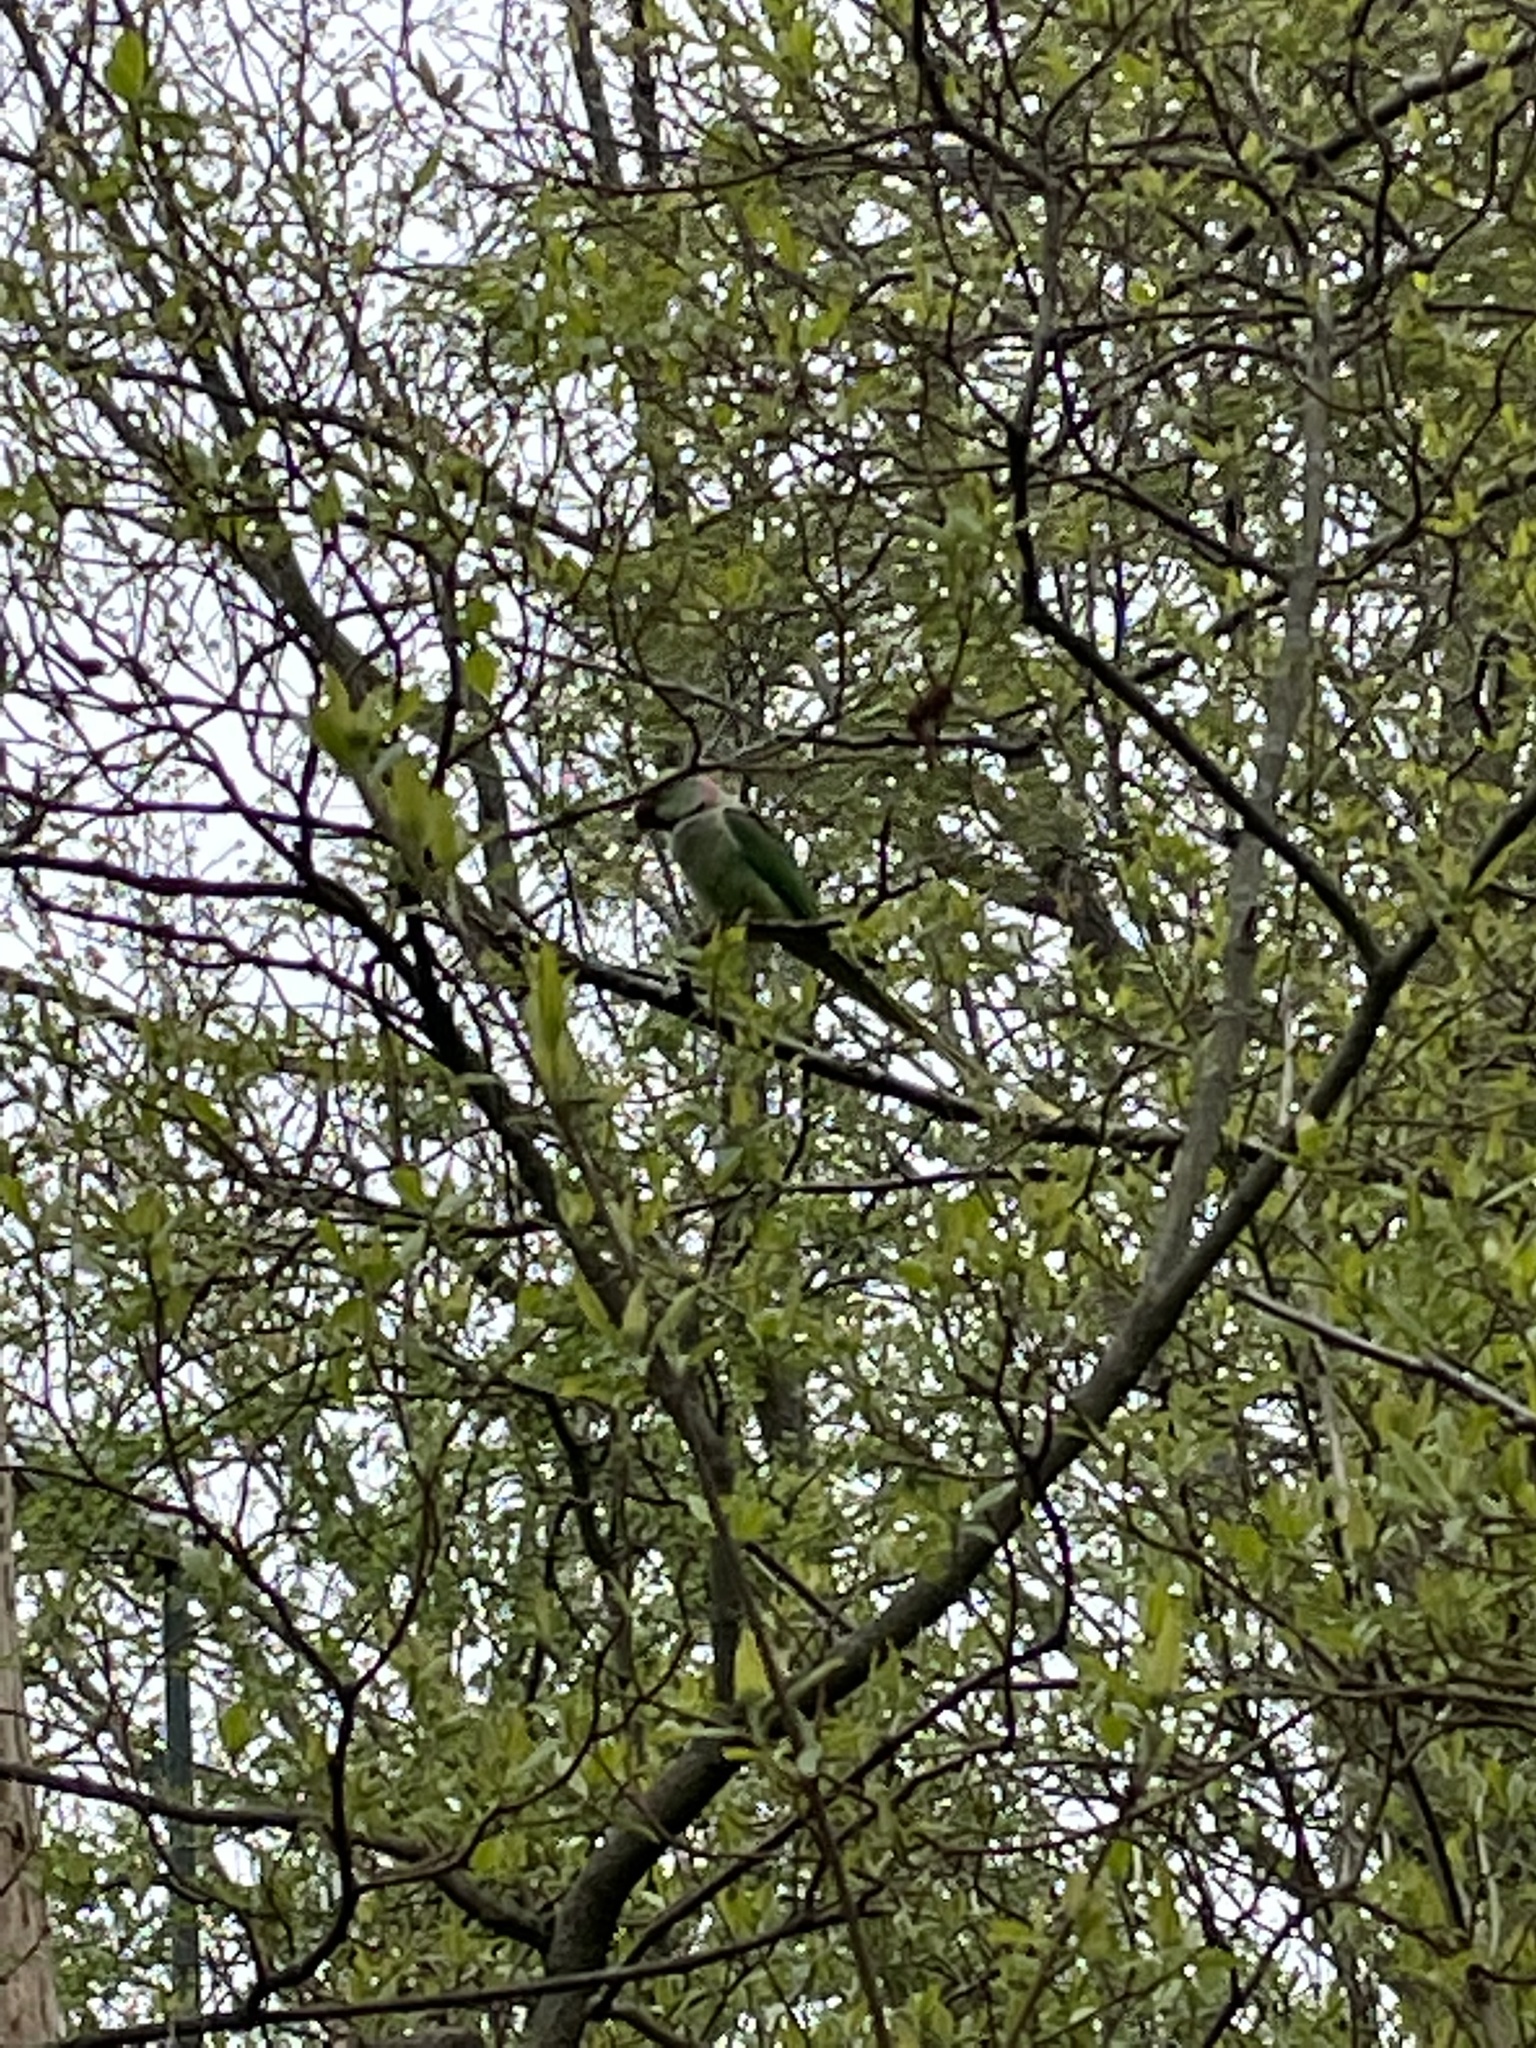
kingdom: Animalia
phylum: Chordata
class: Aves
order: Psittaciformes
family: Psittacidae
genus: Psittacula
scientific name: Psittacula eupatria
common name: Alexandrine parakeet
